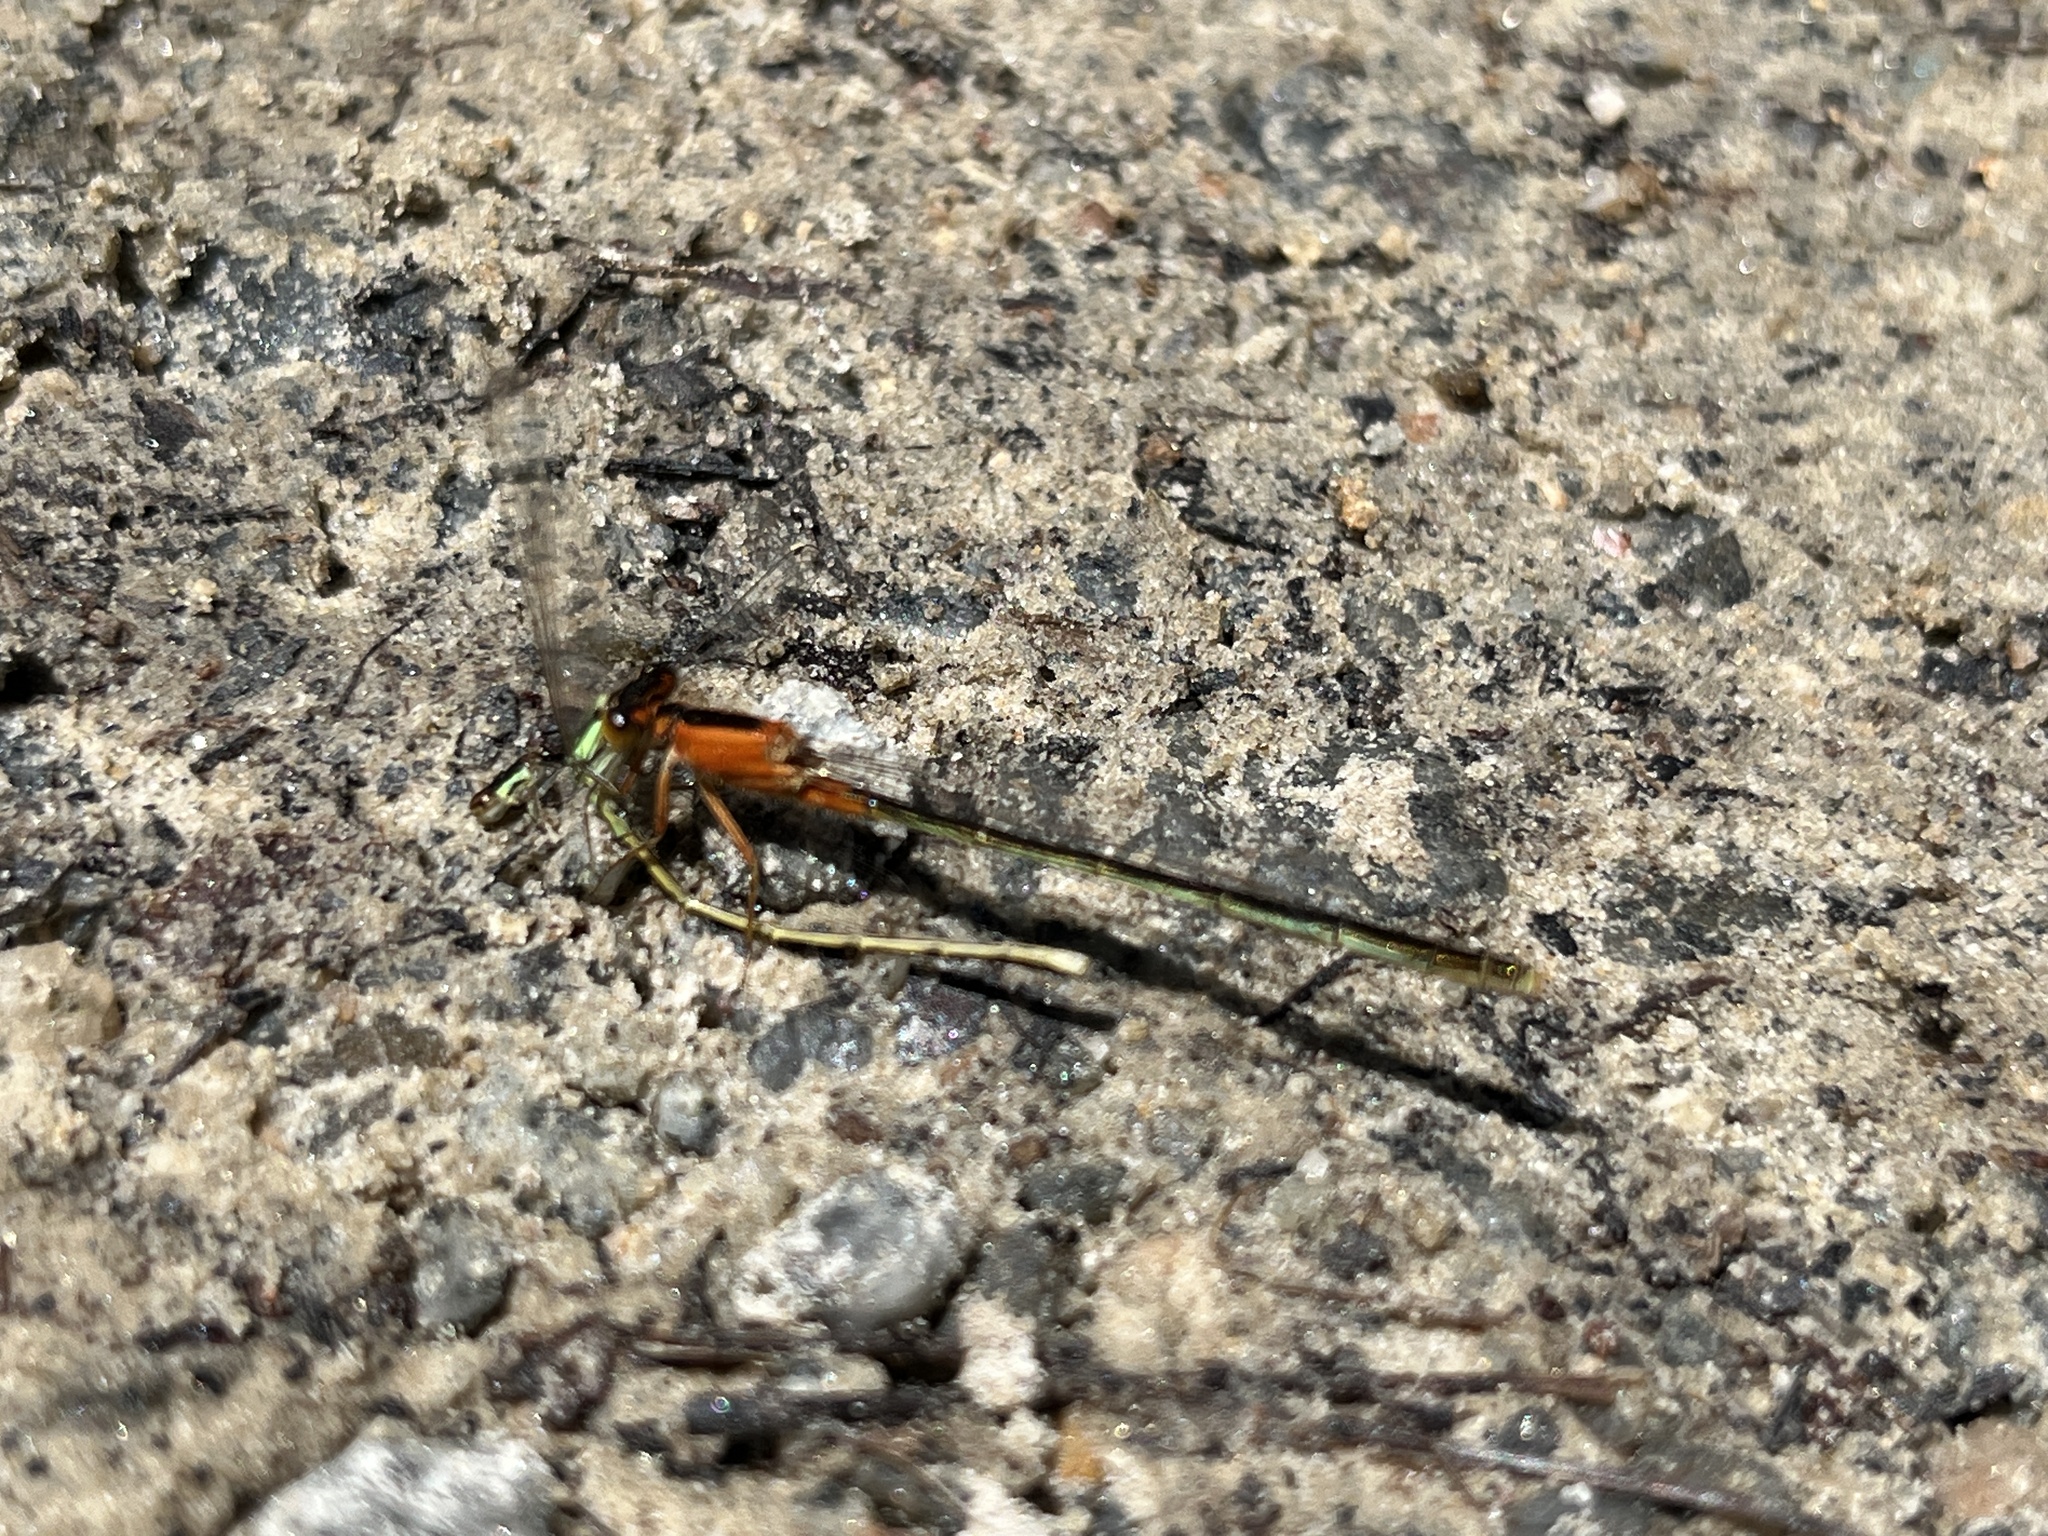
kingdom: Animalia
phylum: Arthropoda
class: Insecta
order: Odonata
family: Coenagrionidae
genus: Ischnura
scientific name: Ischnura ramburii
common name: Rambur's forktail
